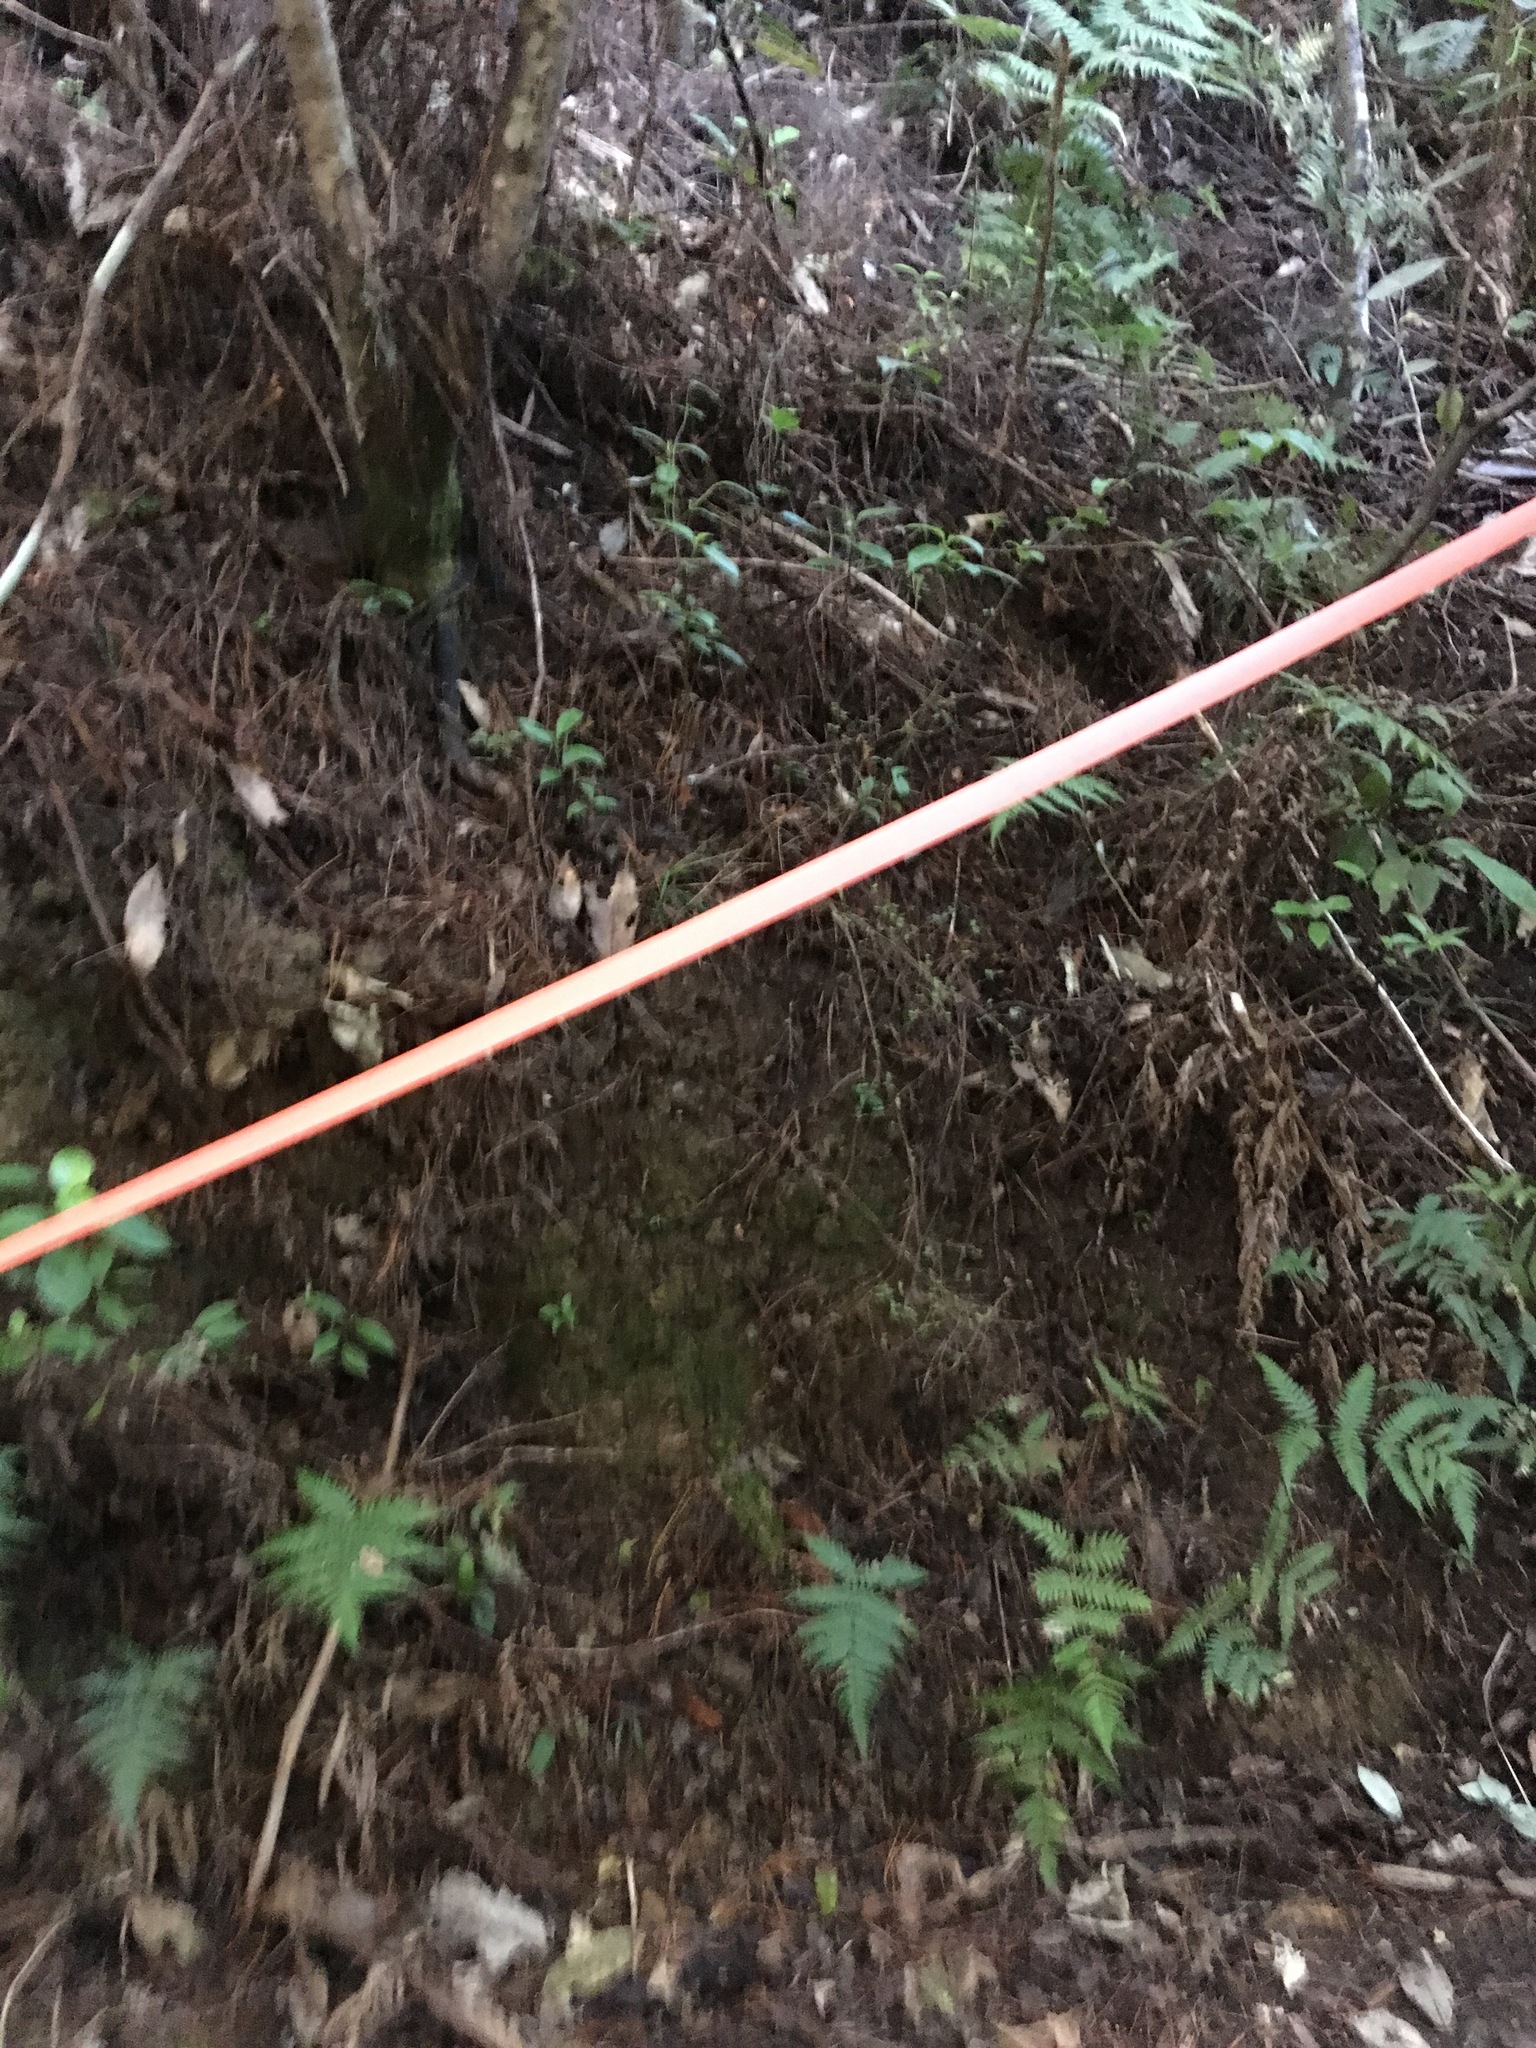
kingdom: Plantae
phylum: Tracheophyta
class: Polypodiopsida
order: Cyatheales
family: Cyatheaceae
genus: Alsophila
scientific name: Alsophila dealbata
